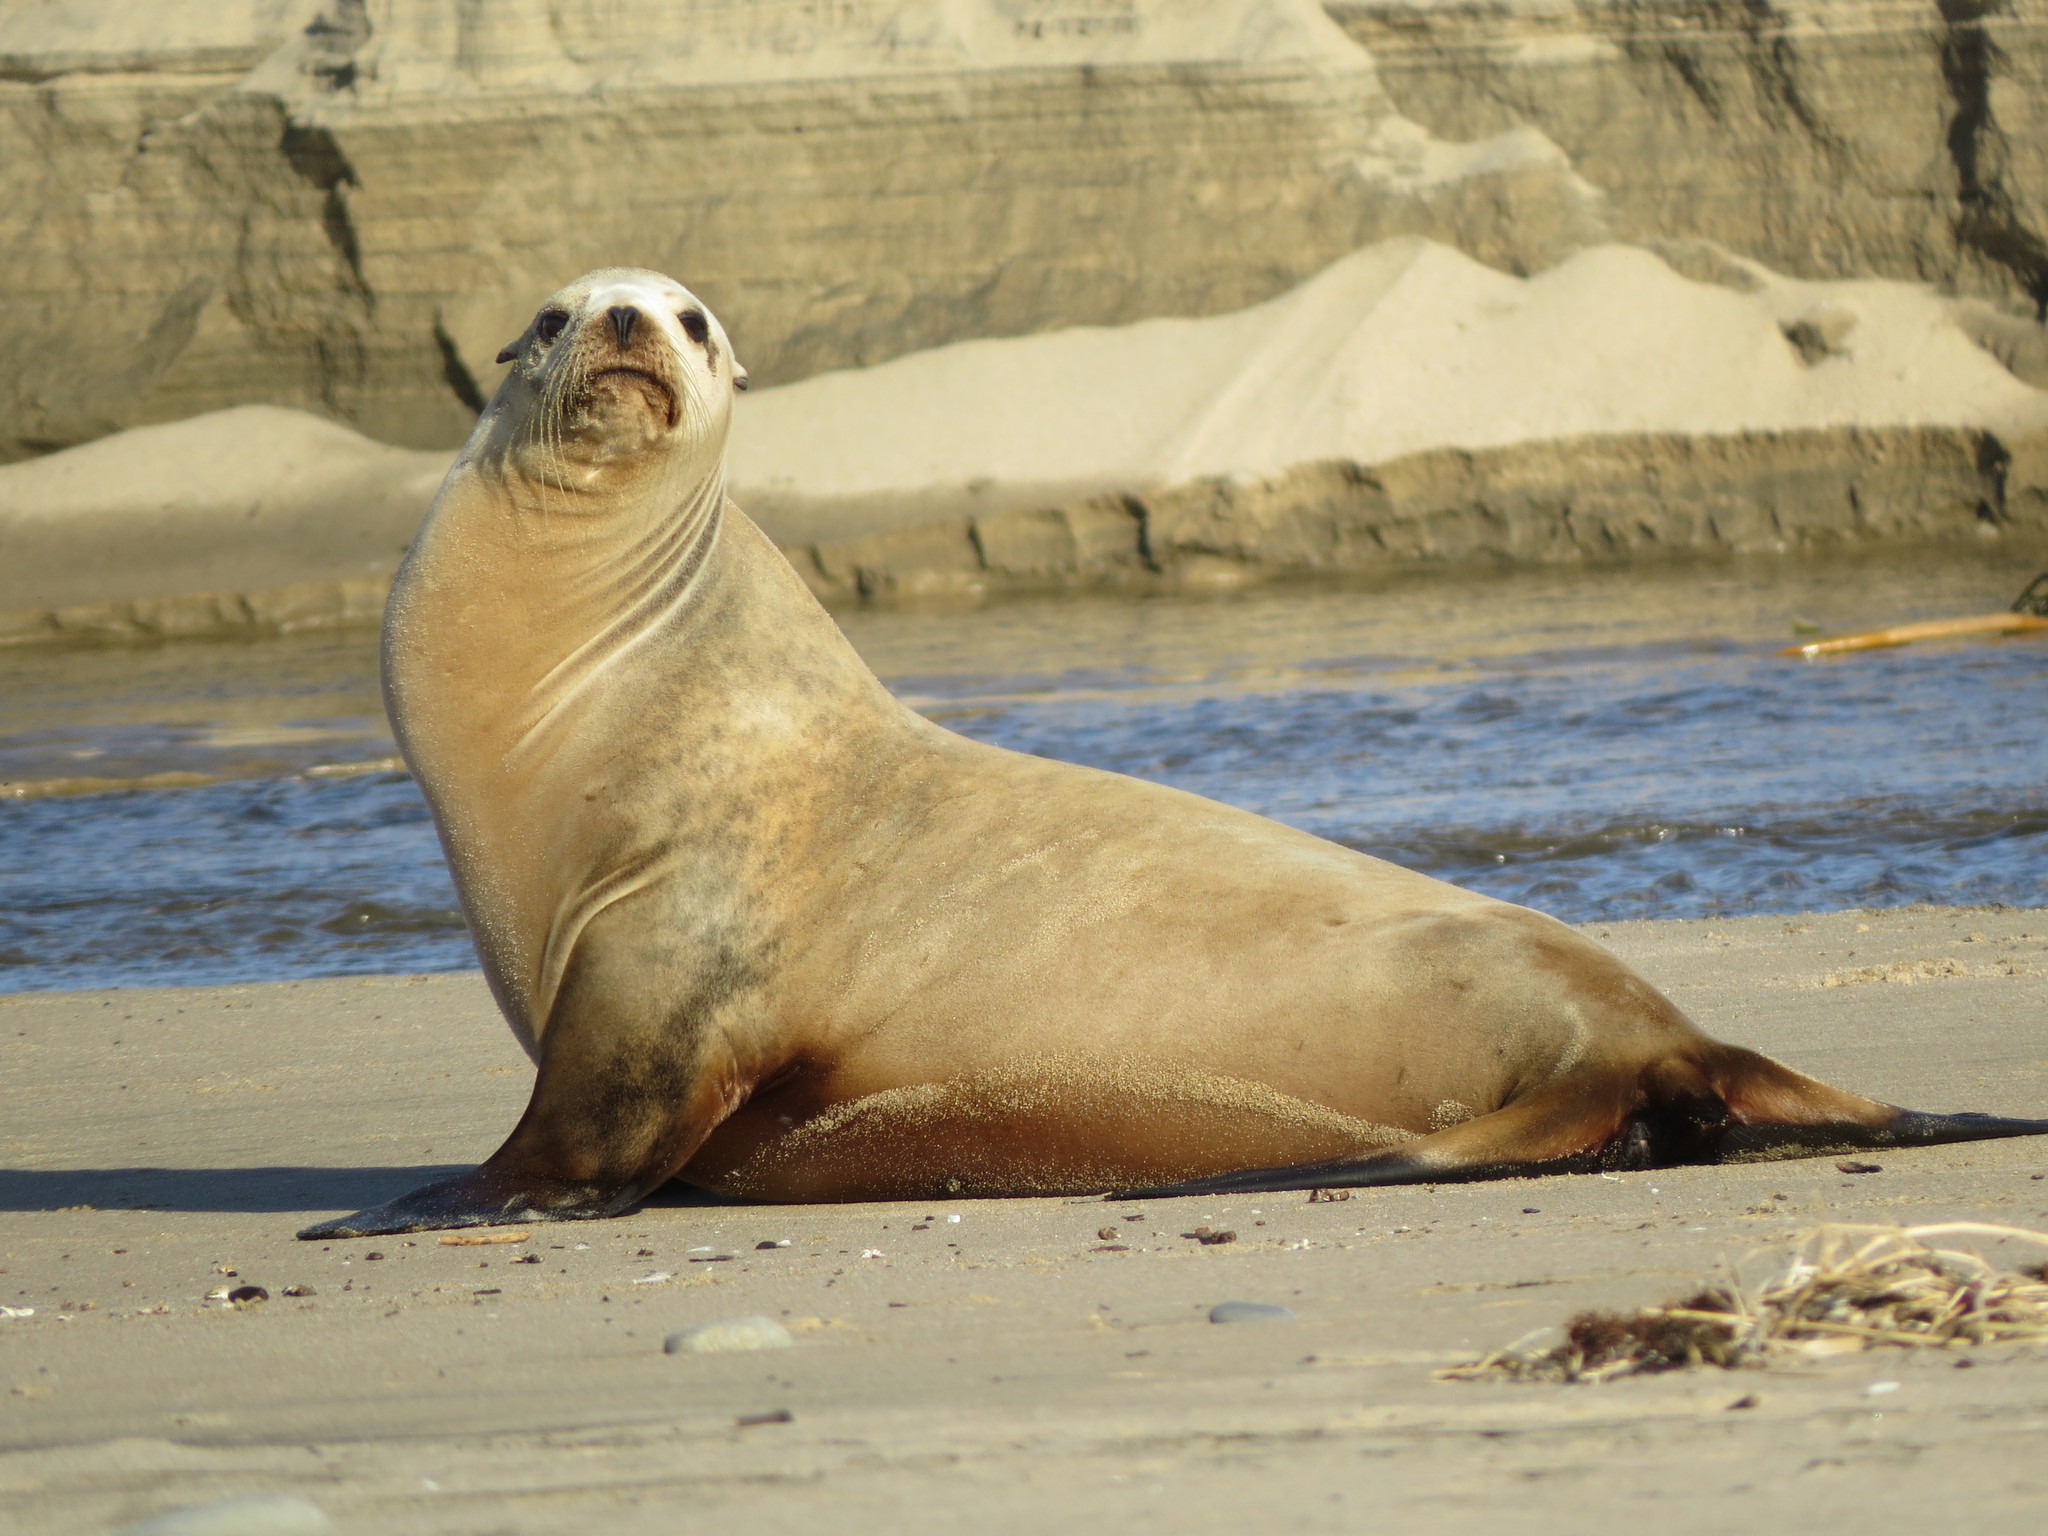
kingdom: Animalia
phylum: Chordata
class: Mammalia
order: Carnivora
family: Otariidae
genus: Zalophus
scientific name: Zalophus californianus
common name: California sea lion
